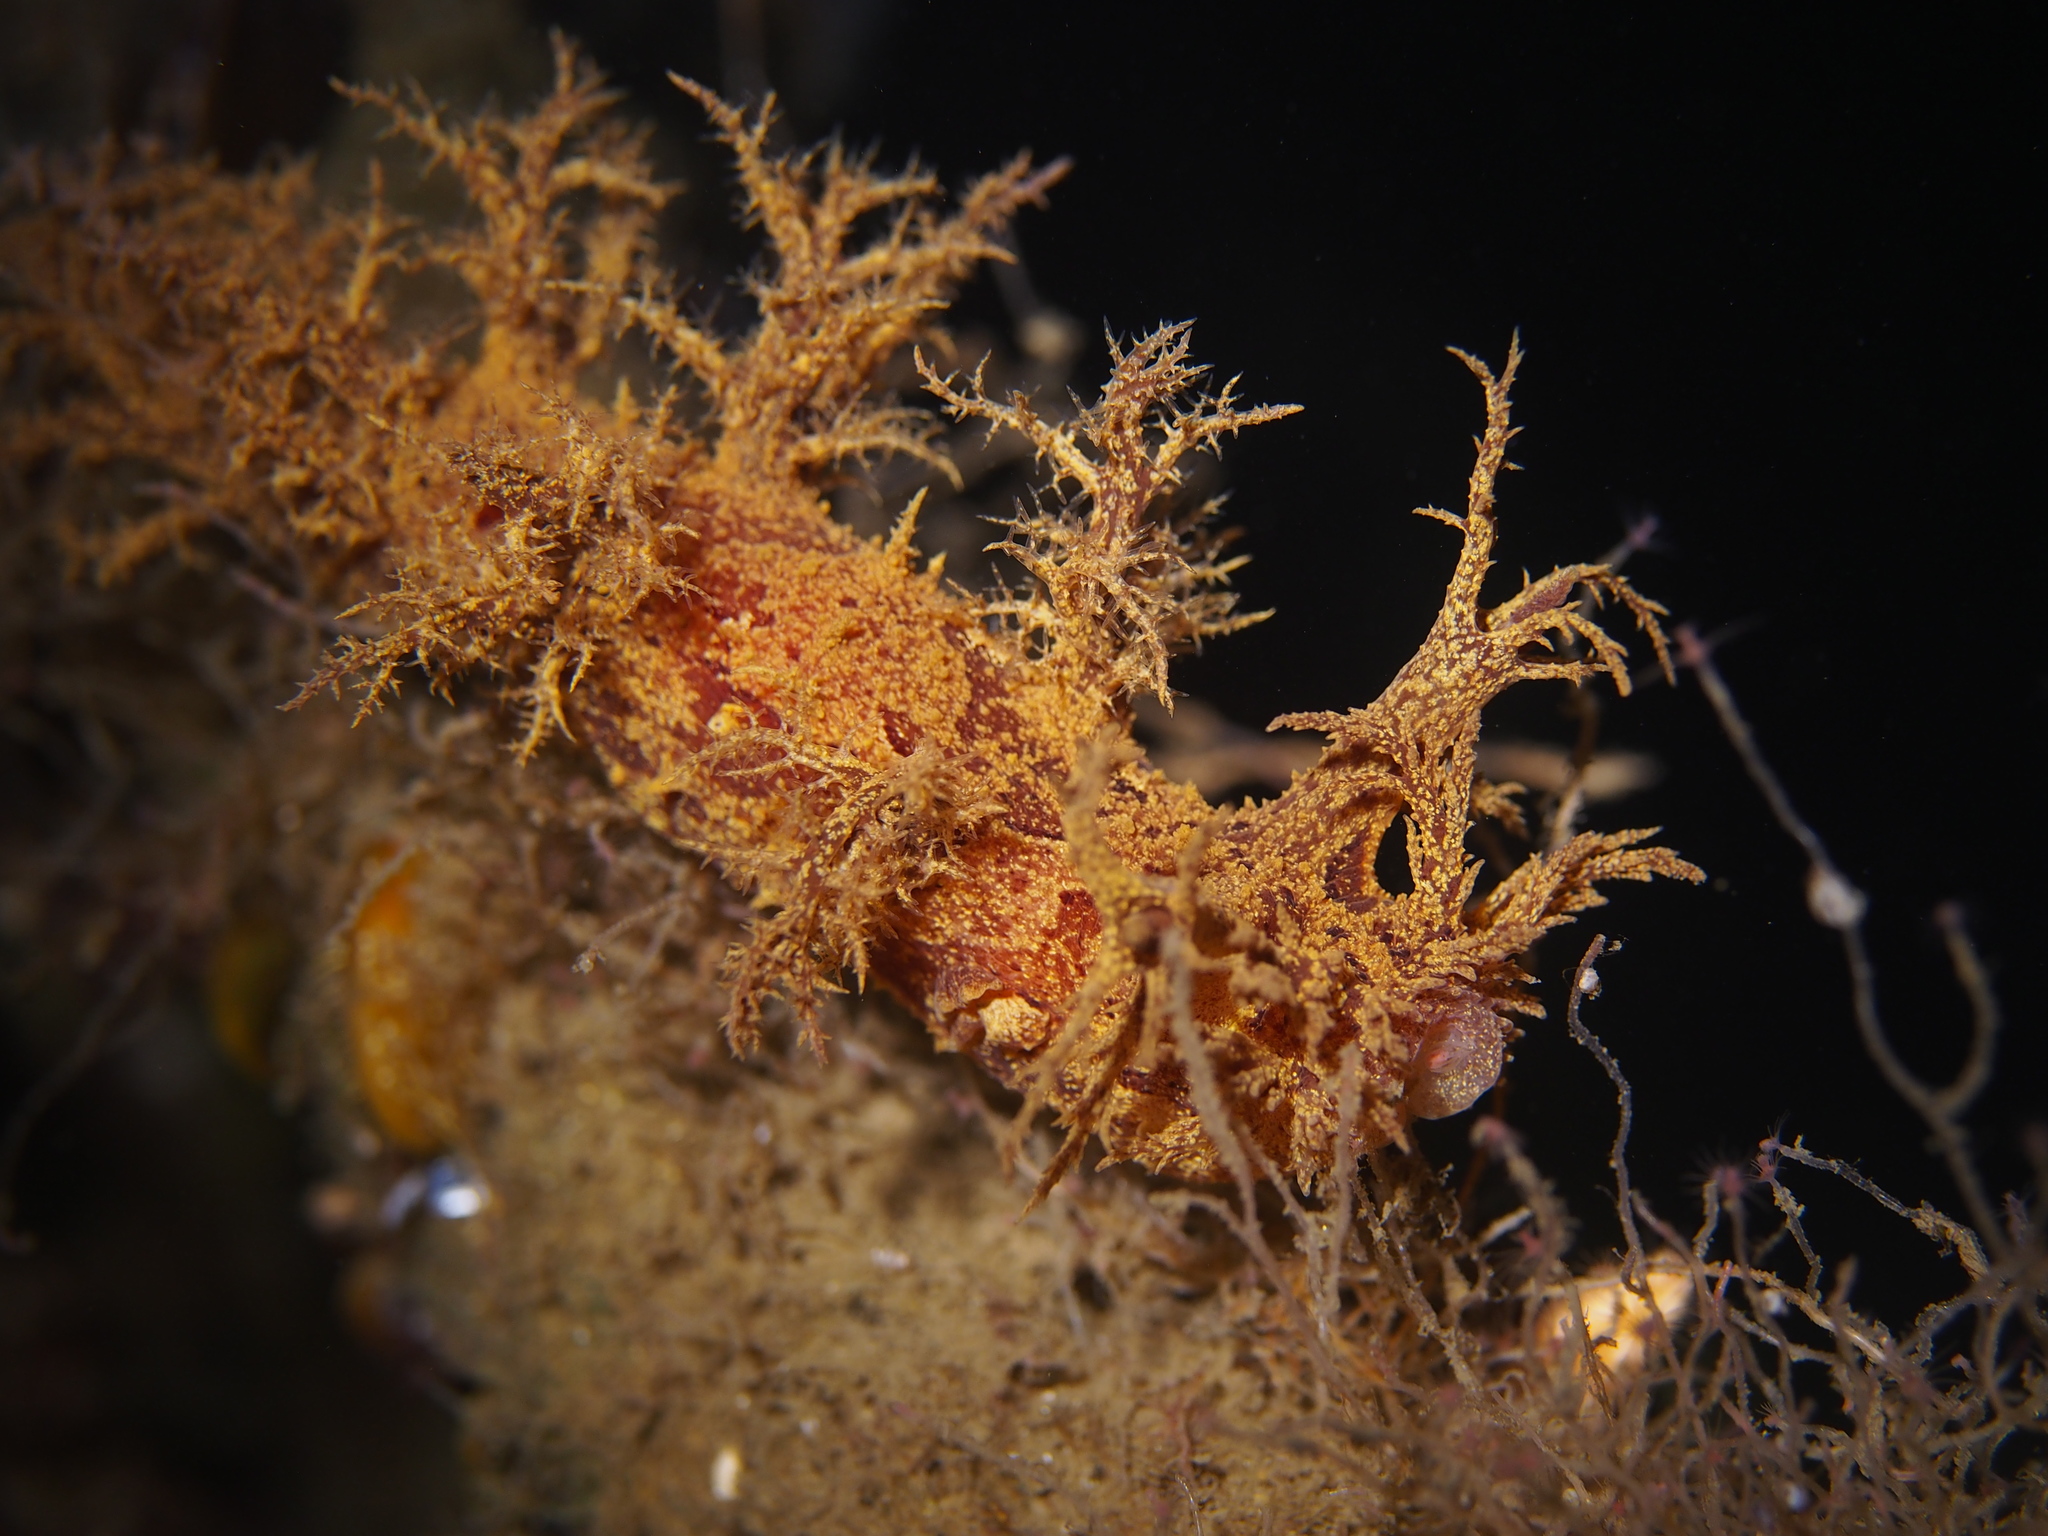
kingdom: Animalia
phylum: Mollusca
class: Gastropoda
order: Nudibranchia
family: Dendronotidae
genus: Dendronotus
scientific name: Dendronotus europaeus
